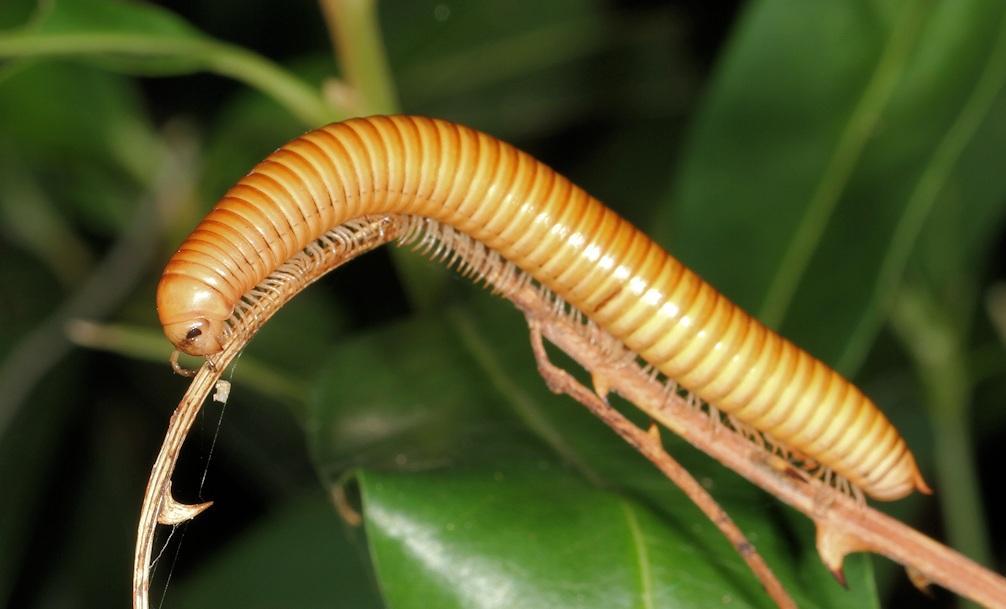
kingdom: Animalia
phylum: Arthropoda
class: Diplopoda
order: Spirostreptida
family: Harpagophoridae
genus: Zinophora
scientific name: Zinophora similis
